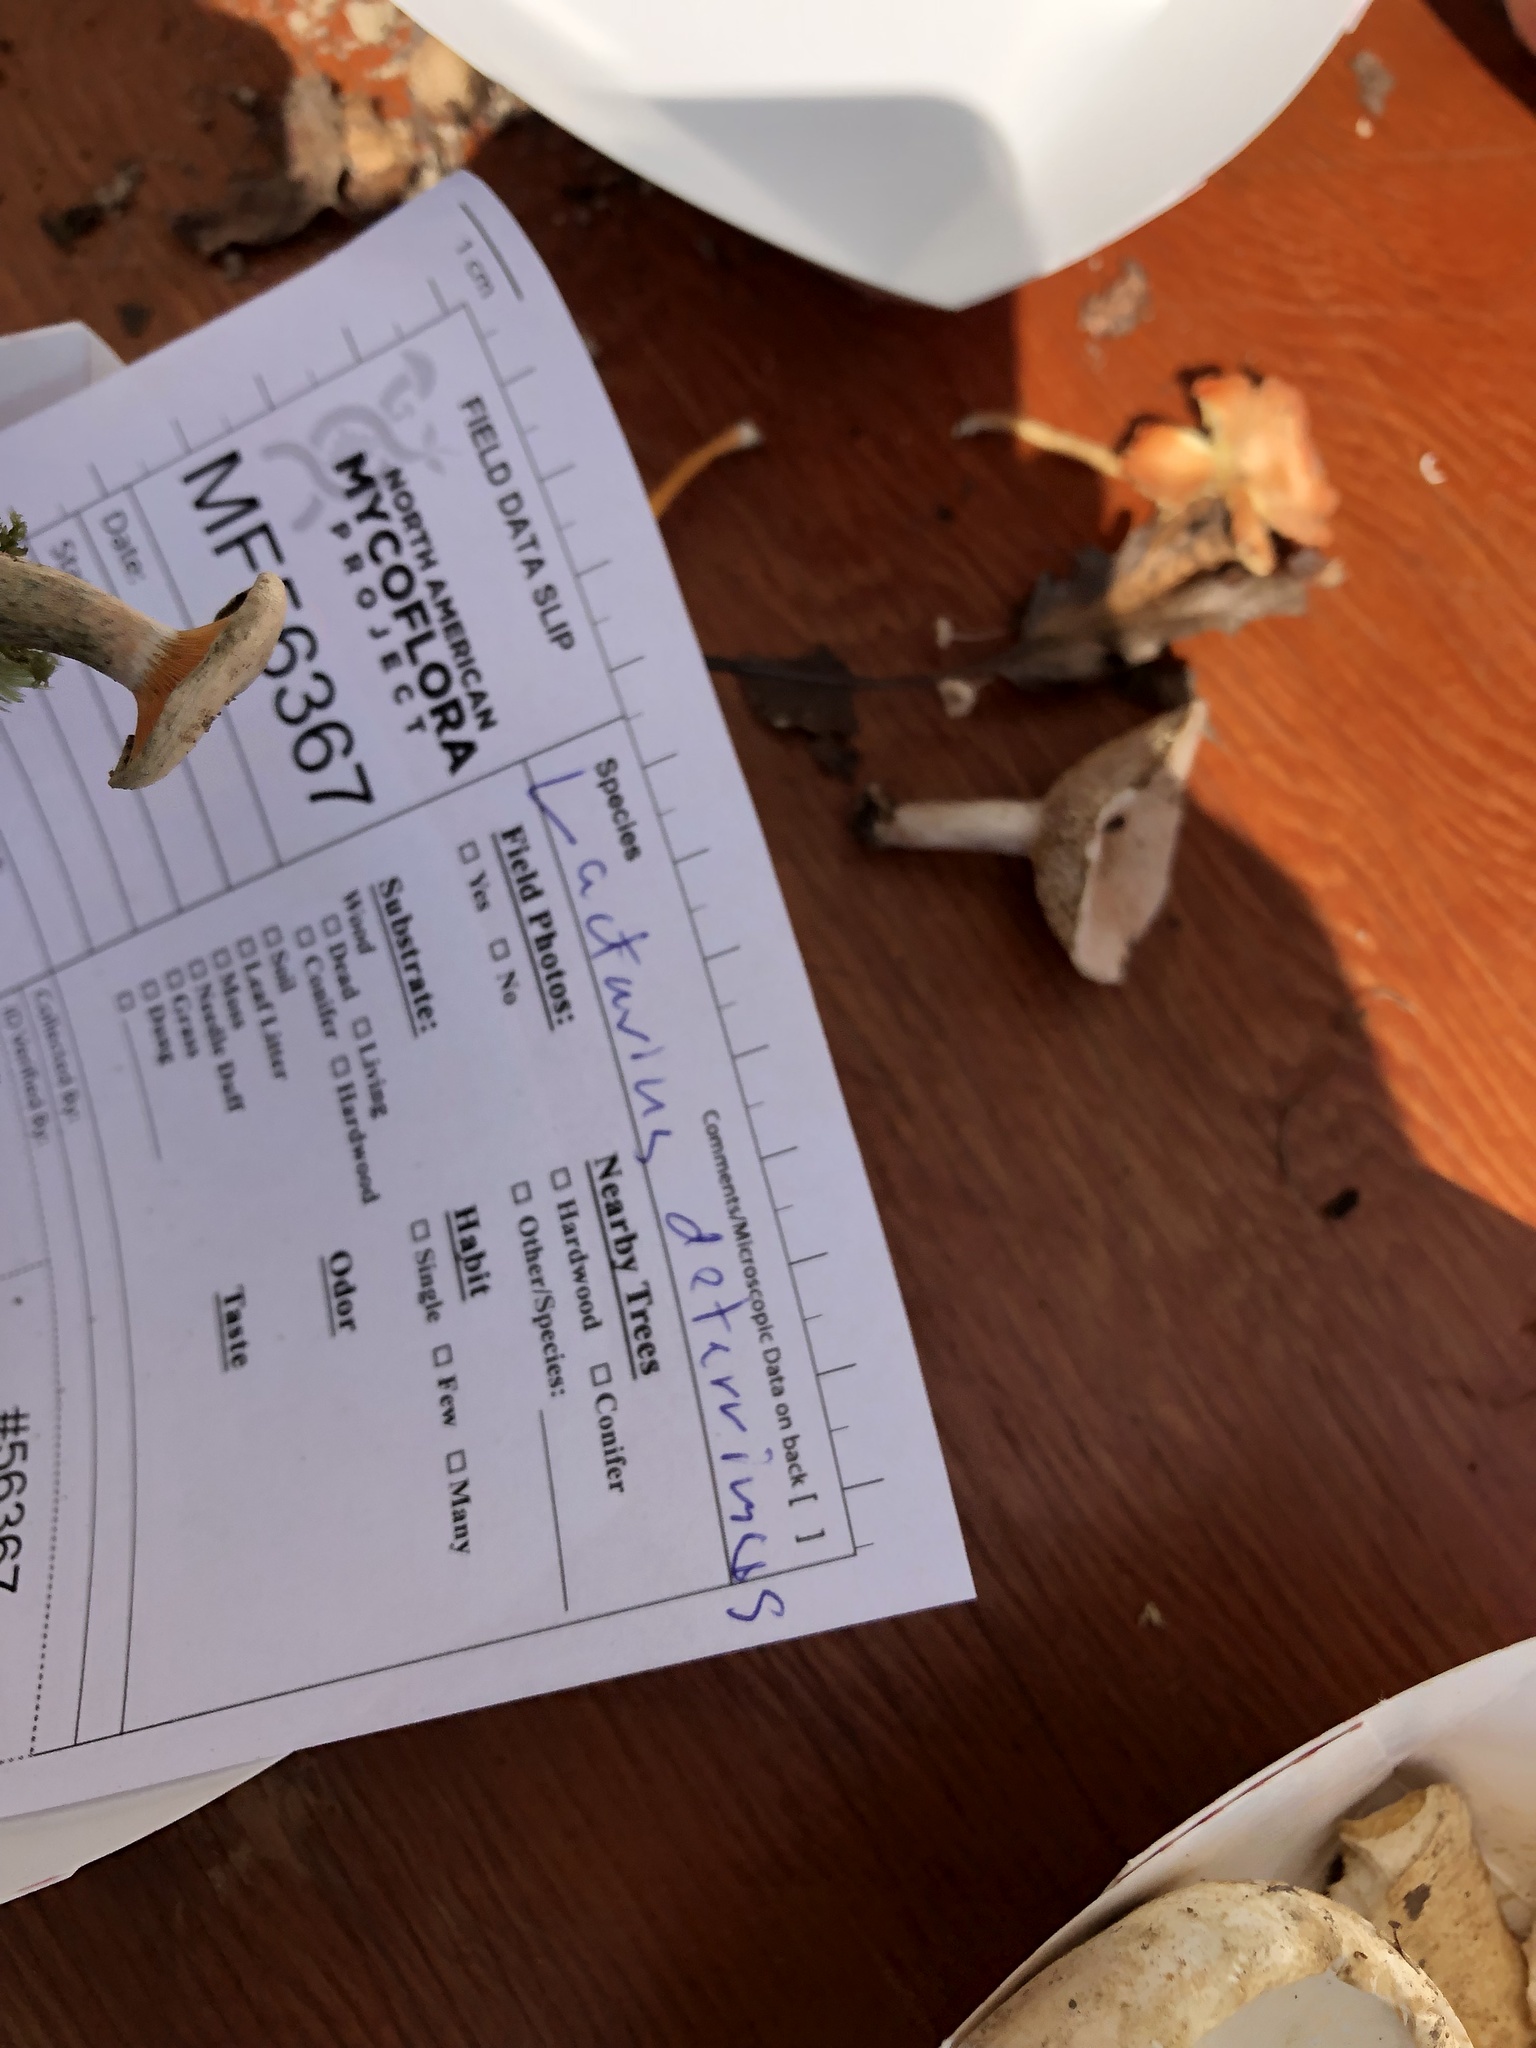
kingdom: Fungi
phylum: Basidiomycota
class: Agaricomycetes
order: Russulales
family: Russulaceae
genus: Lactarius
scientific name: Lactarius deterrimus
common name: False saffron milkcap
